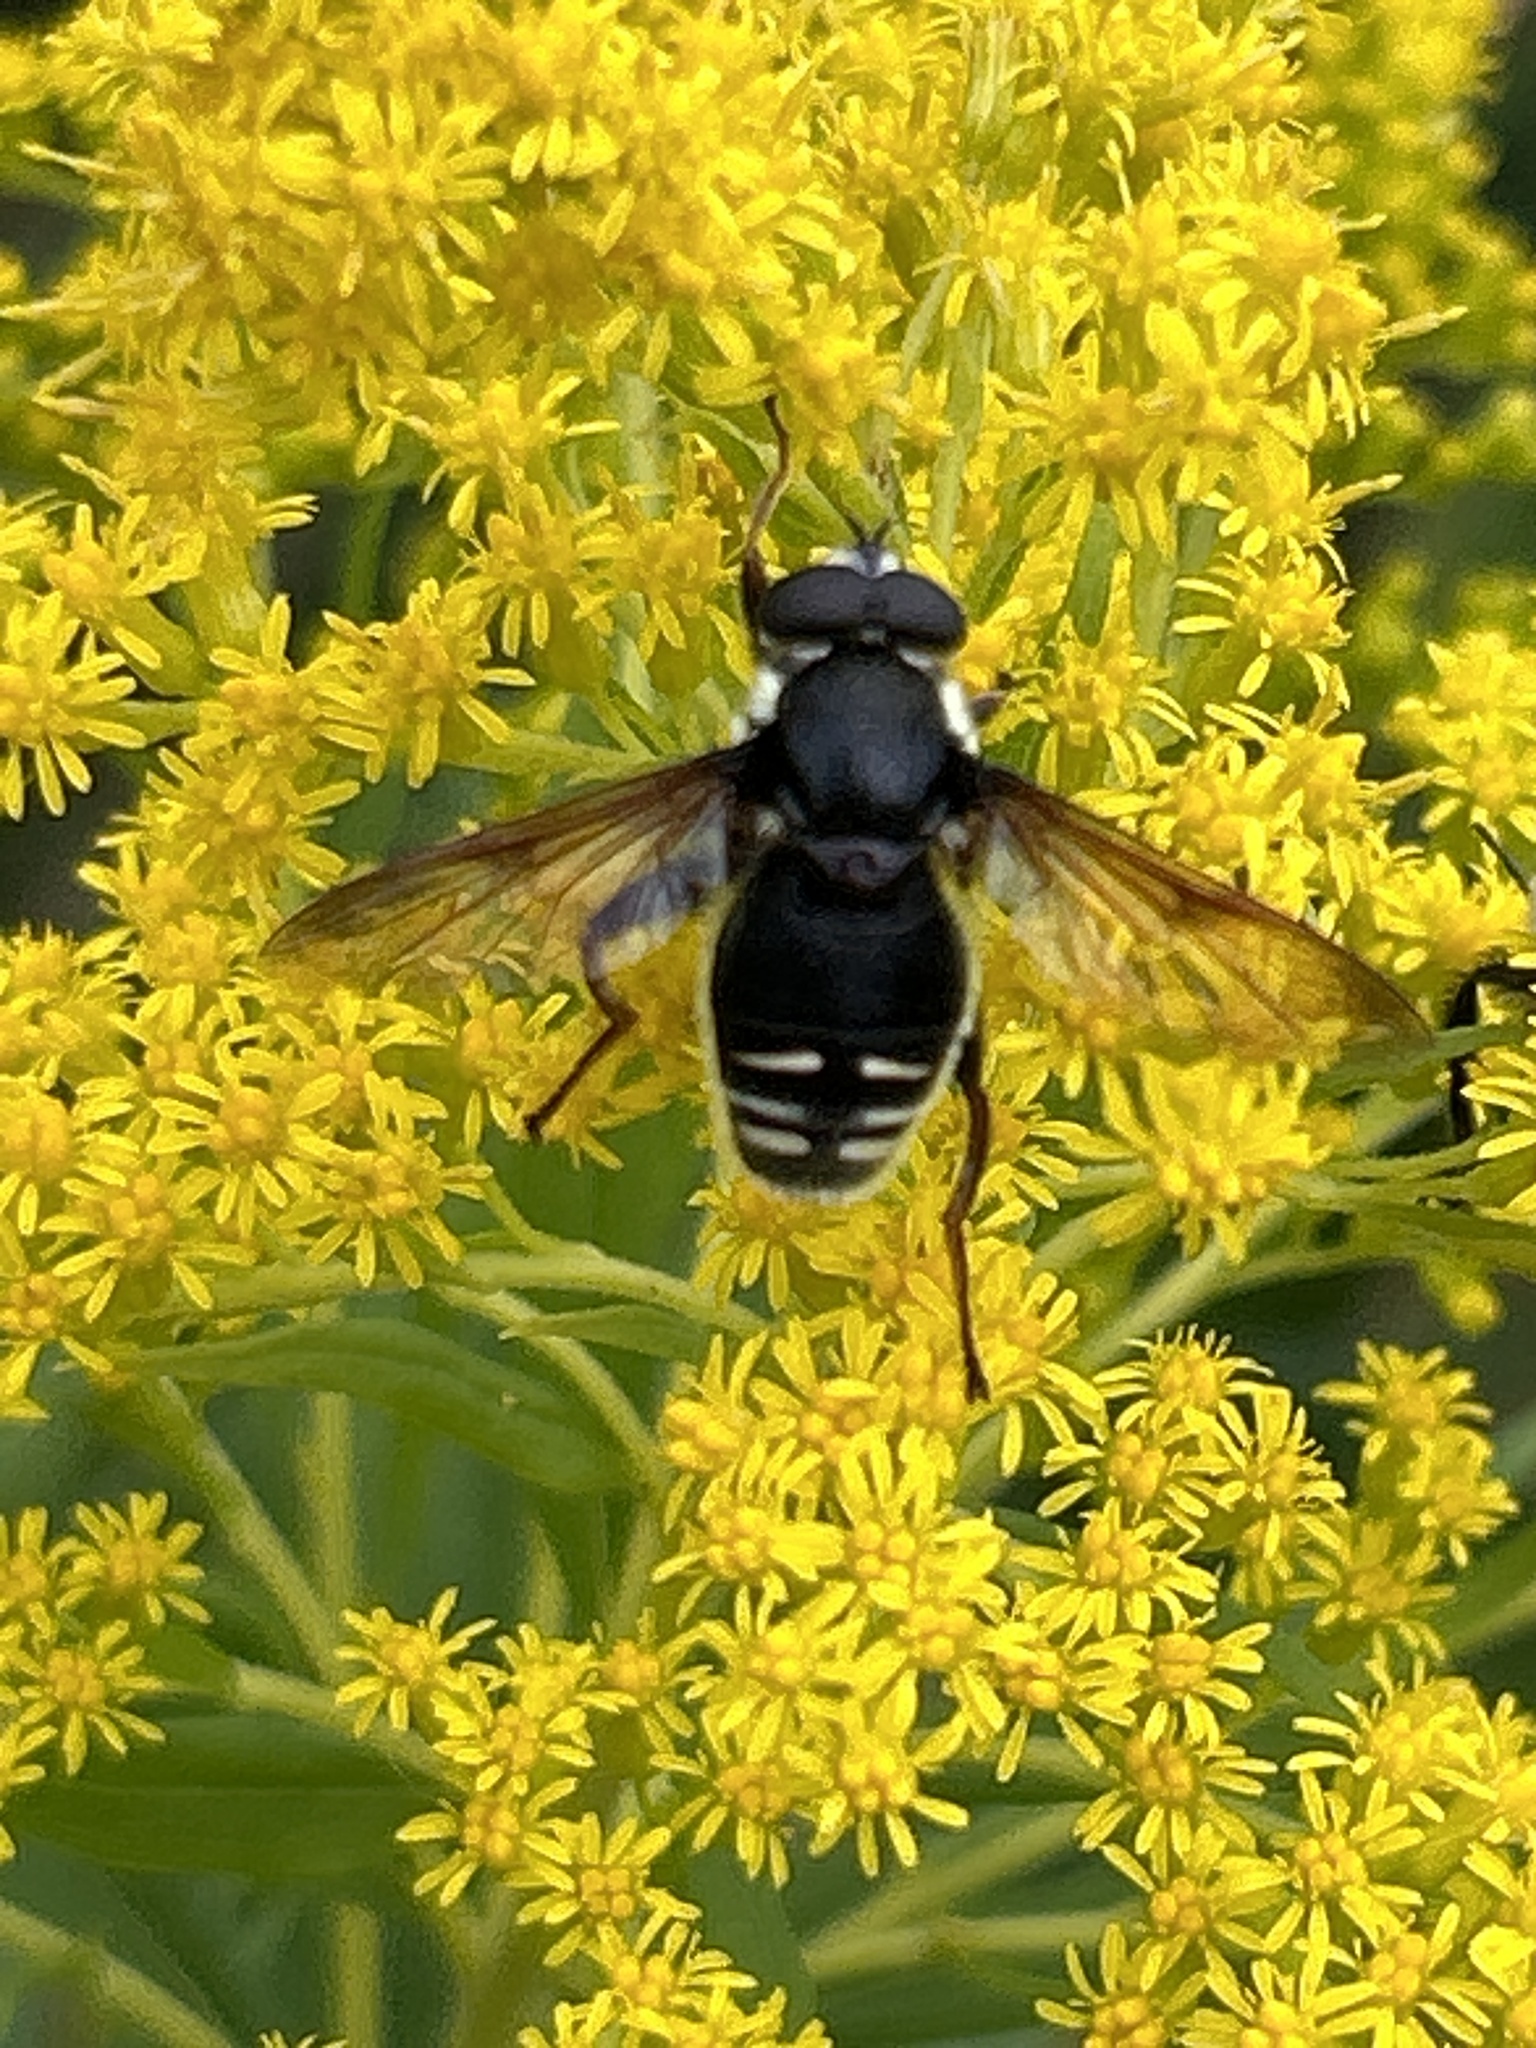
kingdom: Animalia
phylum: Arthropoda
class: Insecta
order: Diptera
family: Syrphidae
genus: Sericomyia
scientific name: Sericomyia militaris
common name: Narrow-banded pond fly
